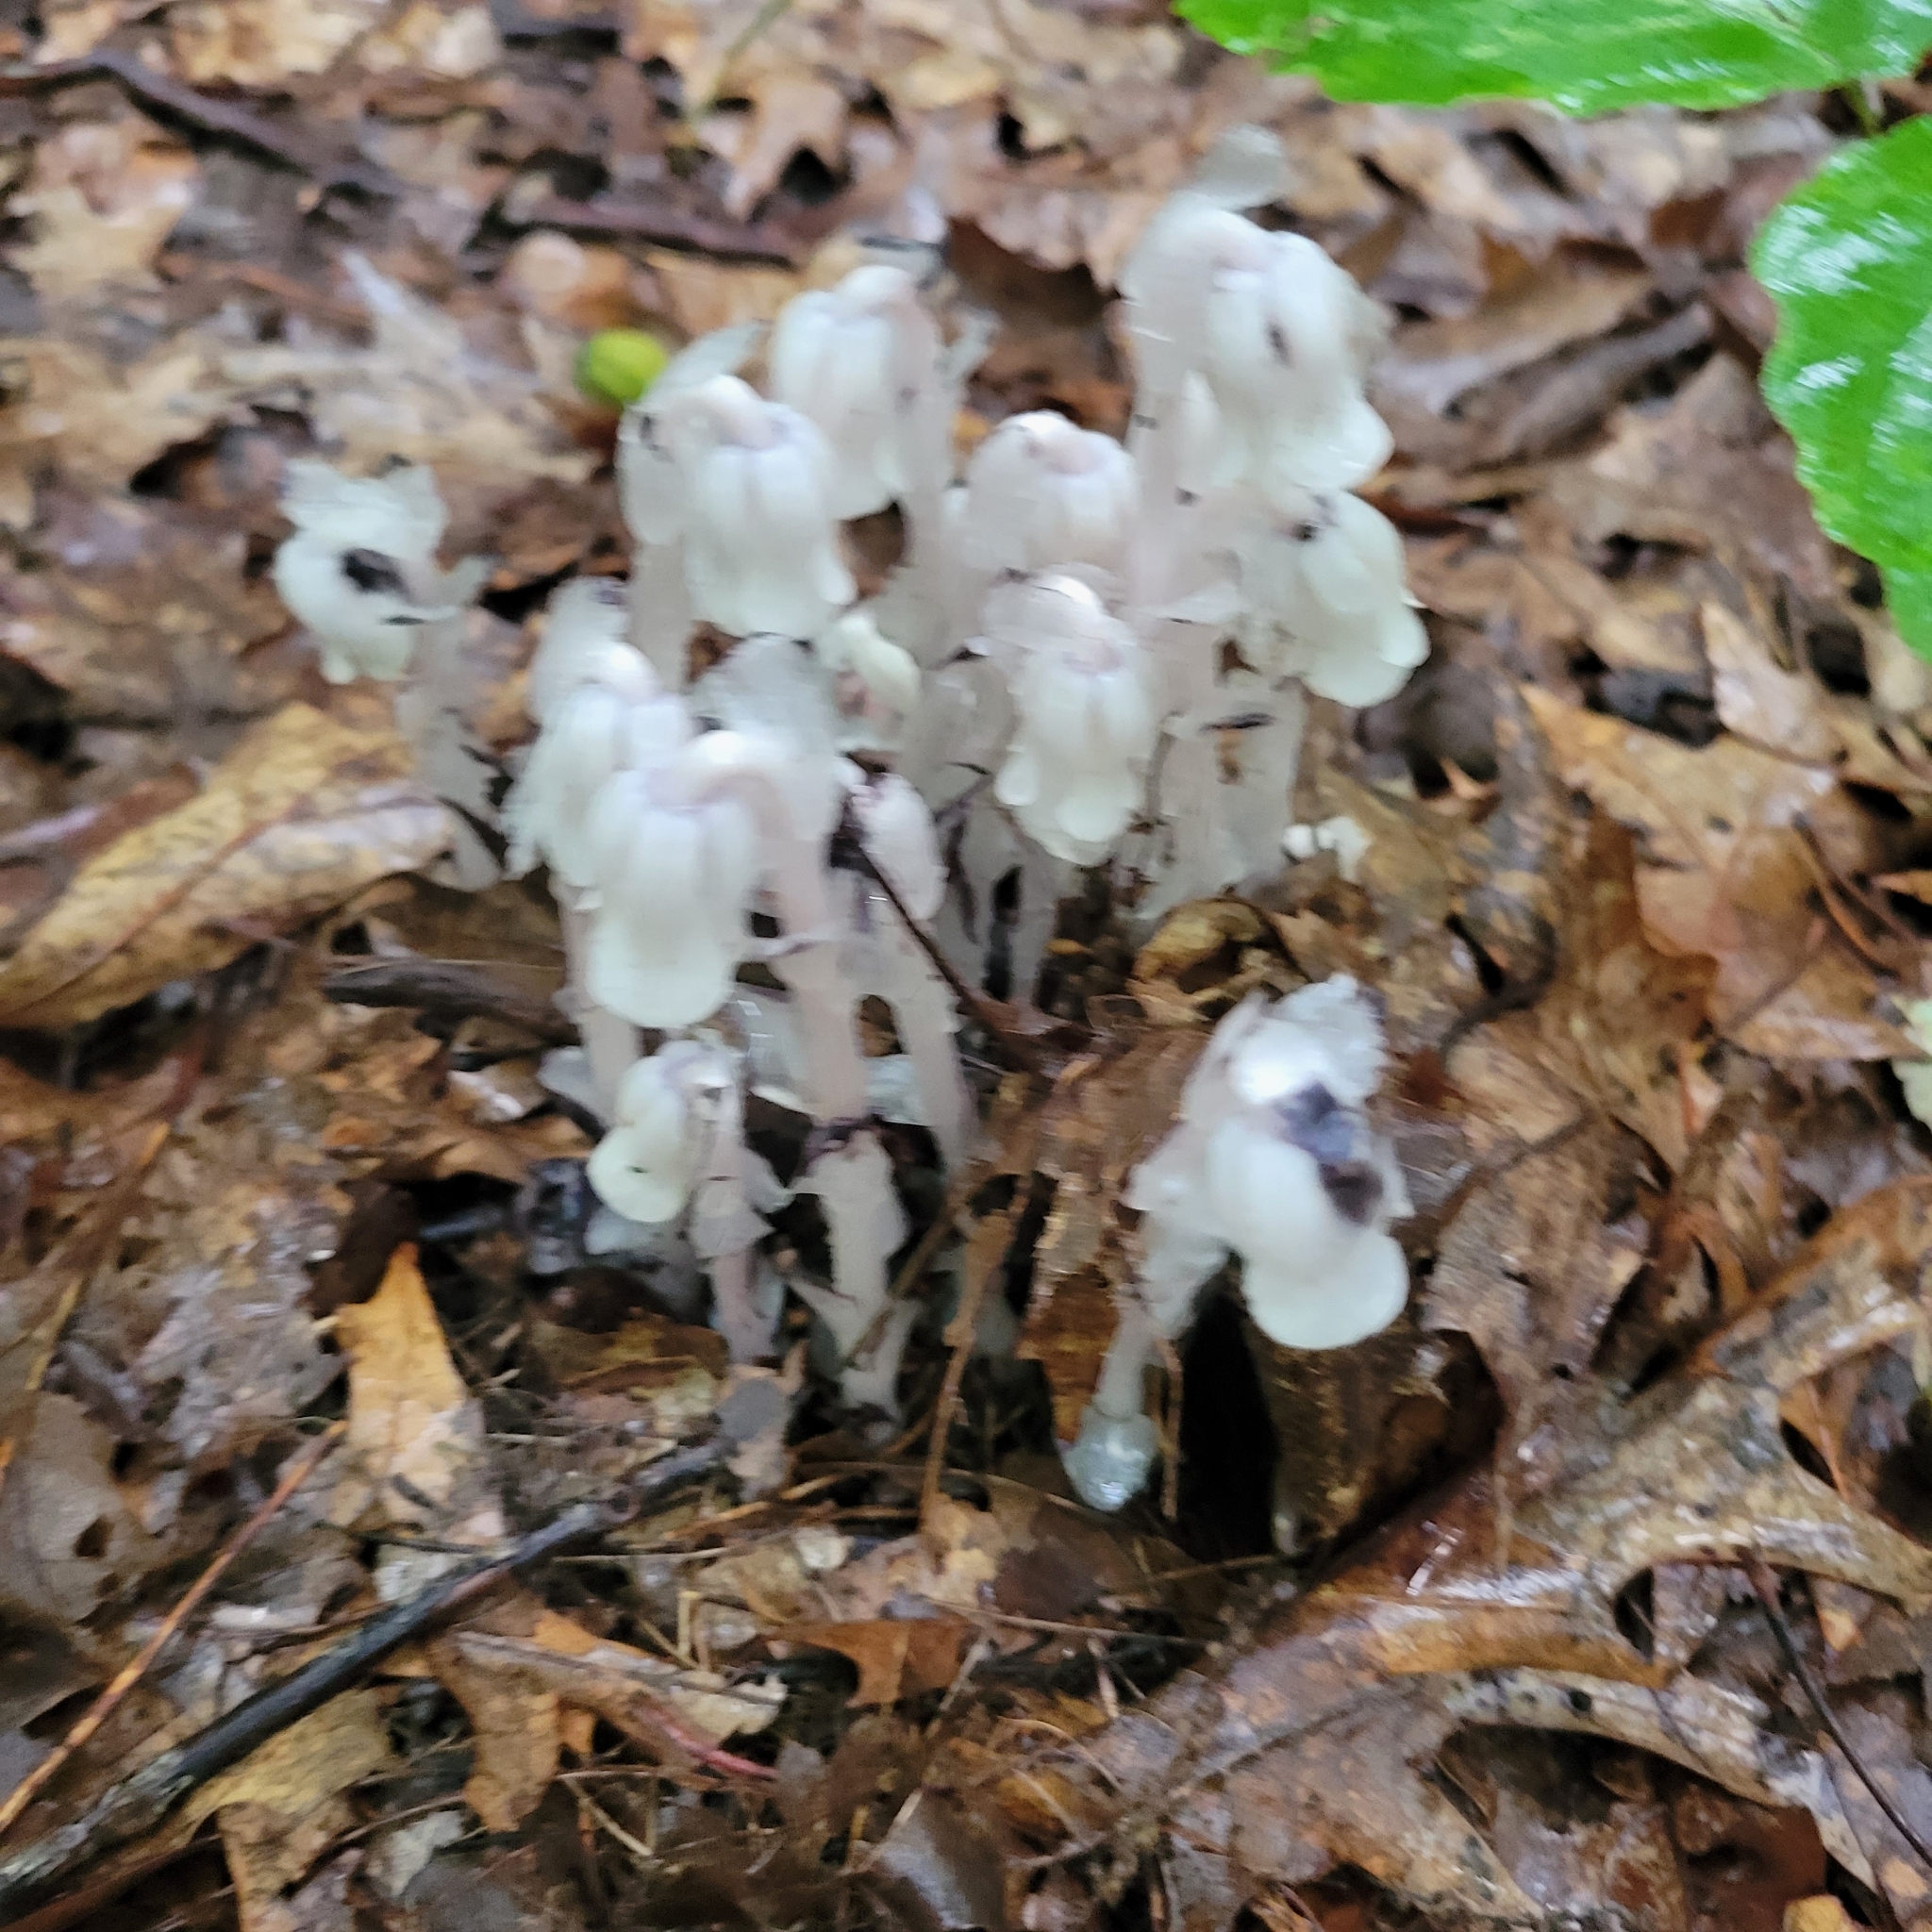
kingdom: Plantae
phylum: Tracheophyta
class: Magnoliopsida
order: Ericales
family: Ericaceae
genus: Monotropa
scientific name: Monotropa uniflora
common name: Convulsion root
